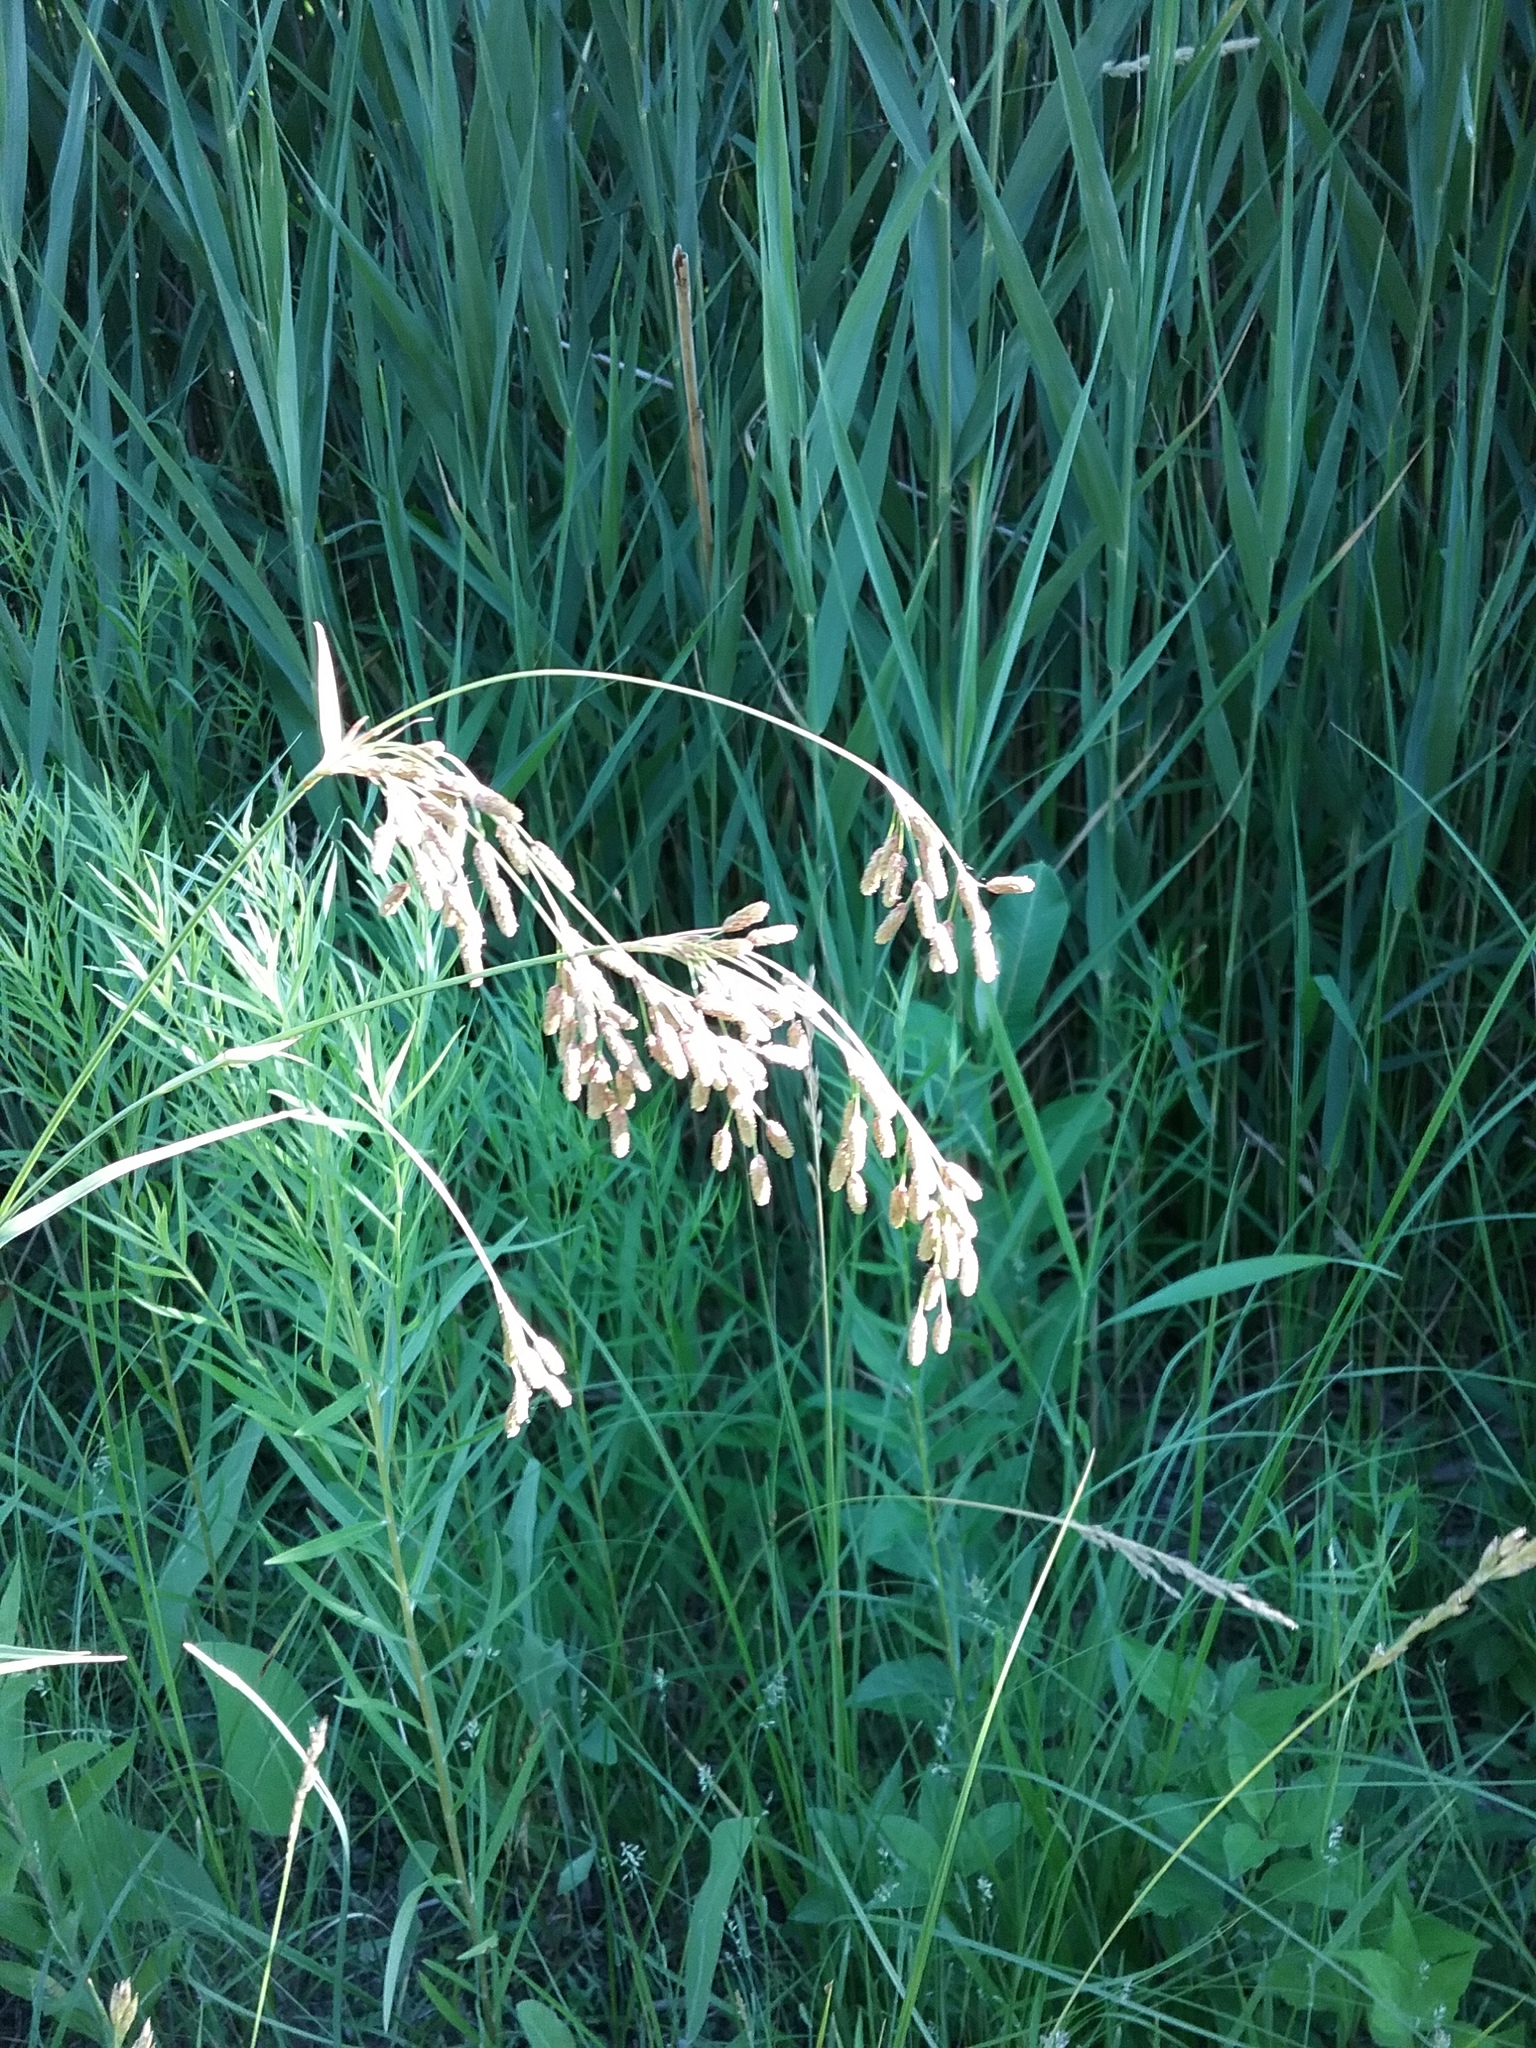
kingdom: Plantae
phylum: Tracheophyta
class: Liliopsida
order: Poales
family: Cyperaceae
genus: Scirpus
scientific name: Scirpus pendulus
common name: Nodding bulrush
